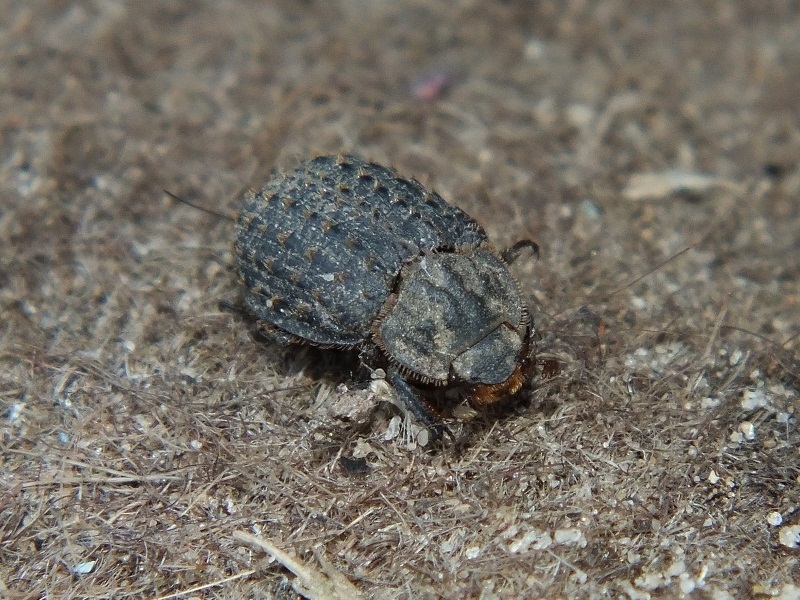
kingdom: Animalia
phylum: Arthropoda
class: Insecta
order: Coleoptera
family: Trogidae
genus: Trox
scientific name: Trox hispidus
